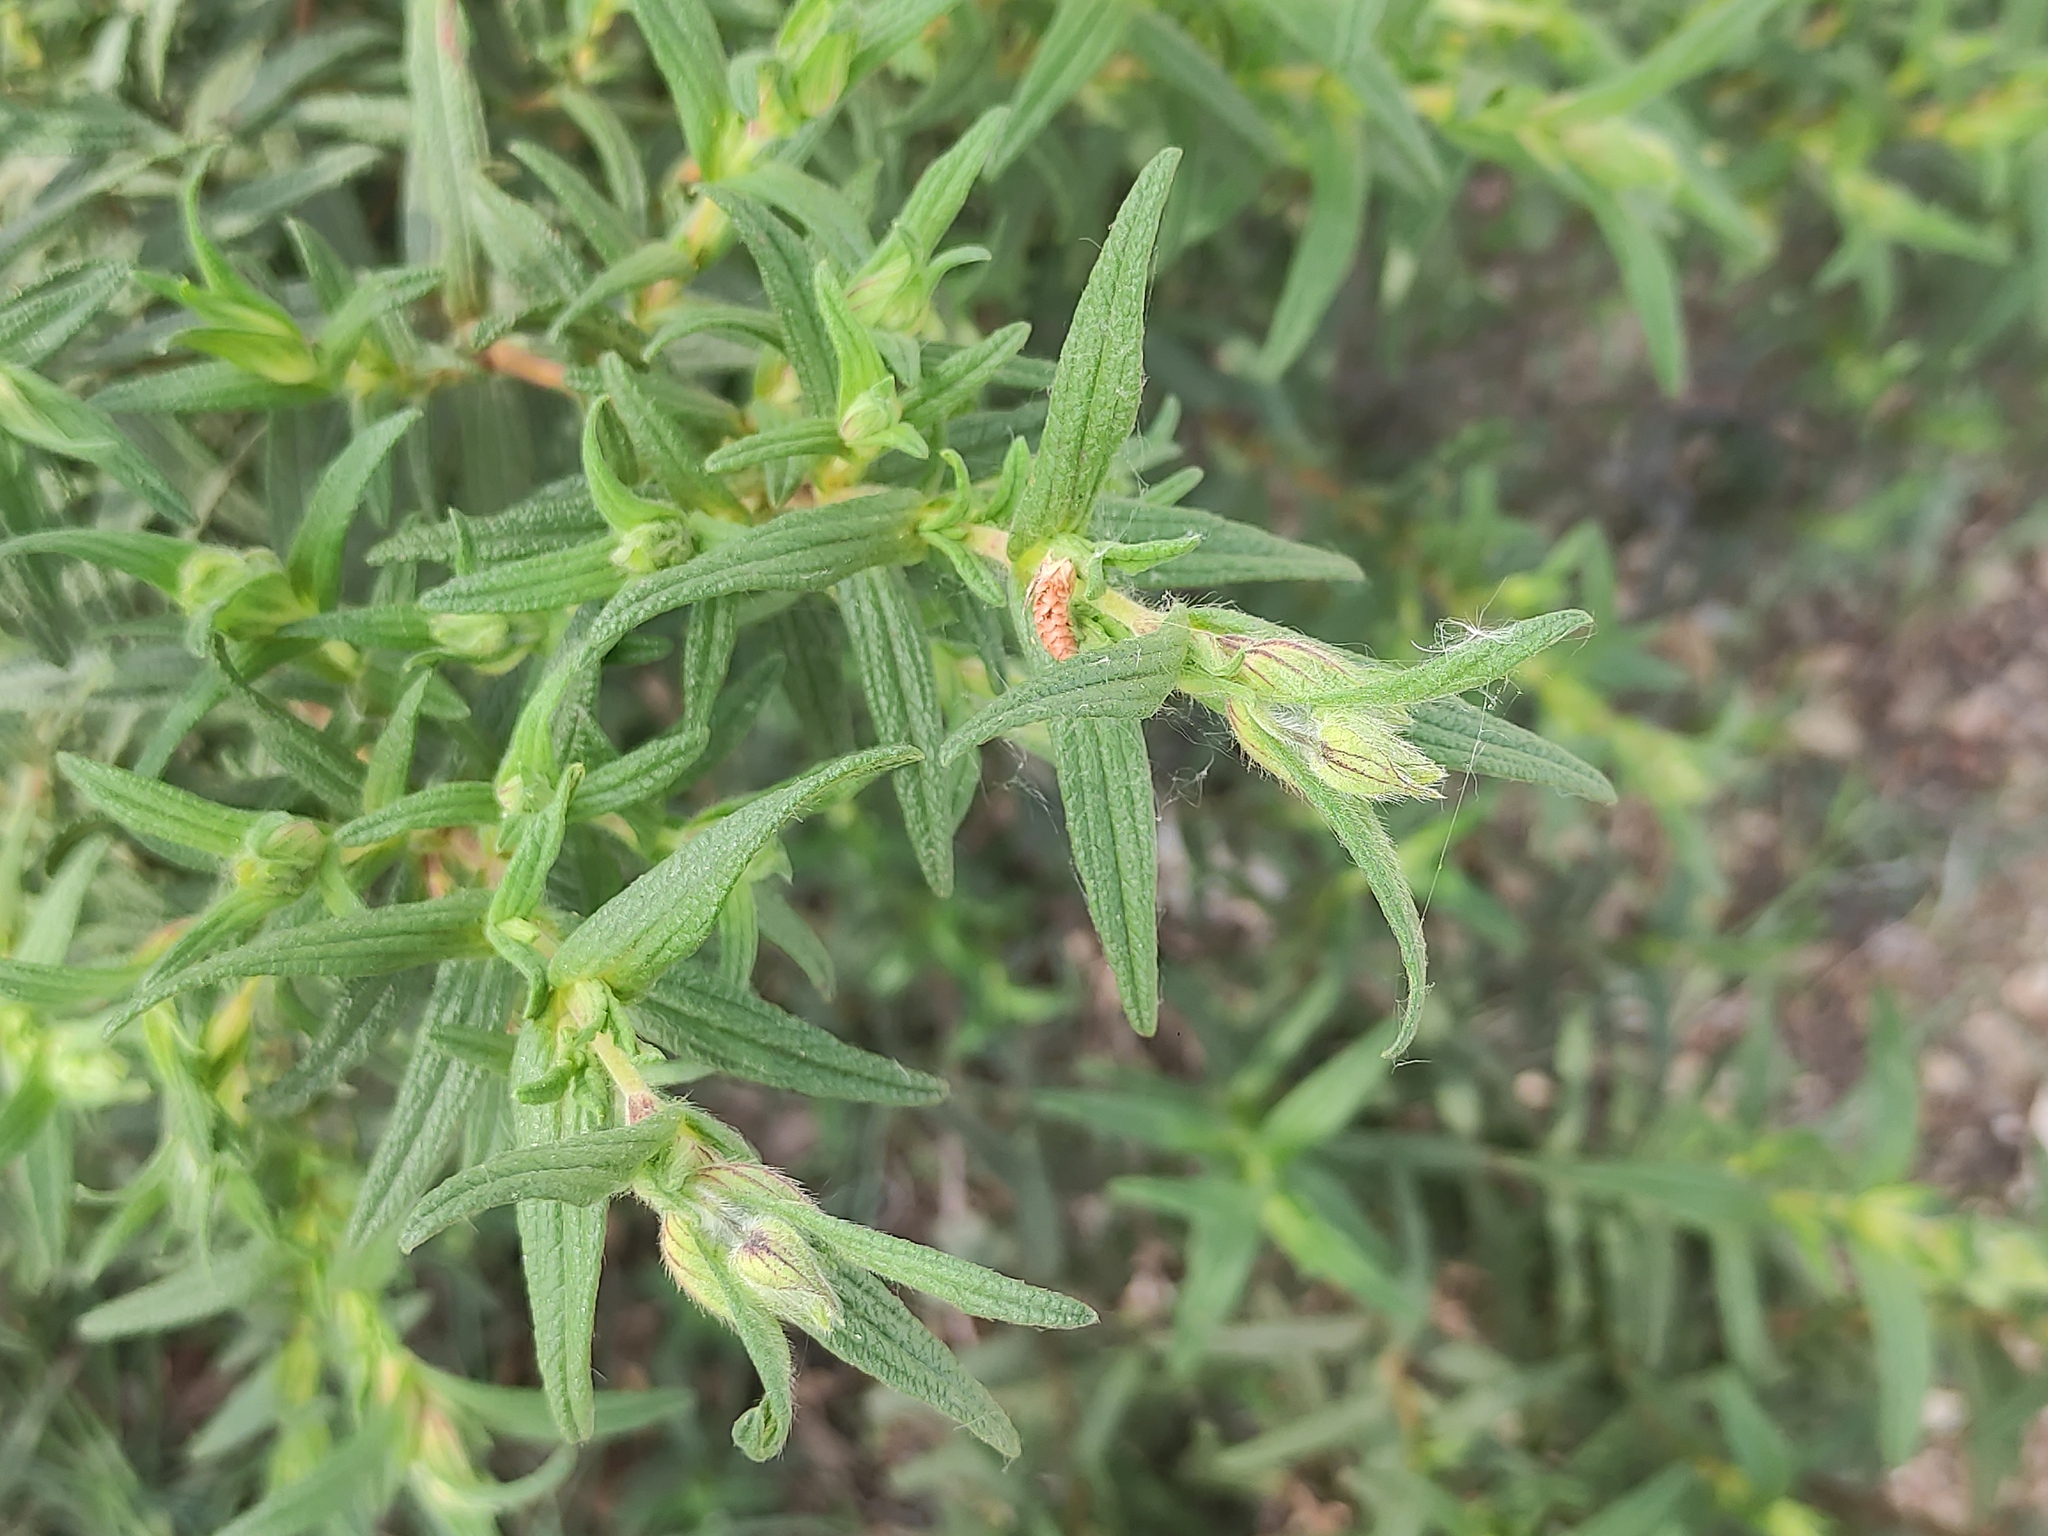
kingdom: Plantae
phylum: Tracheophyta
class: Magnoliopsida
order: Malvales
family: Cistaceae
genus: Cistus
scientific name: Cistus monspeliensis
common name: Montpelier cistus
